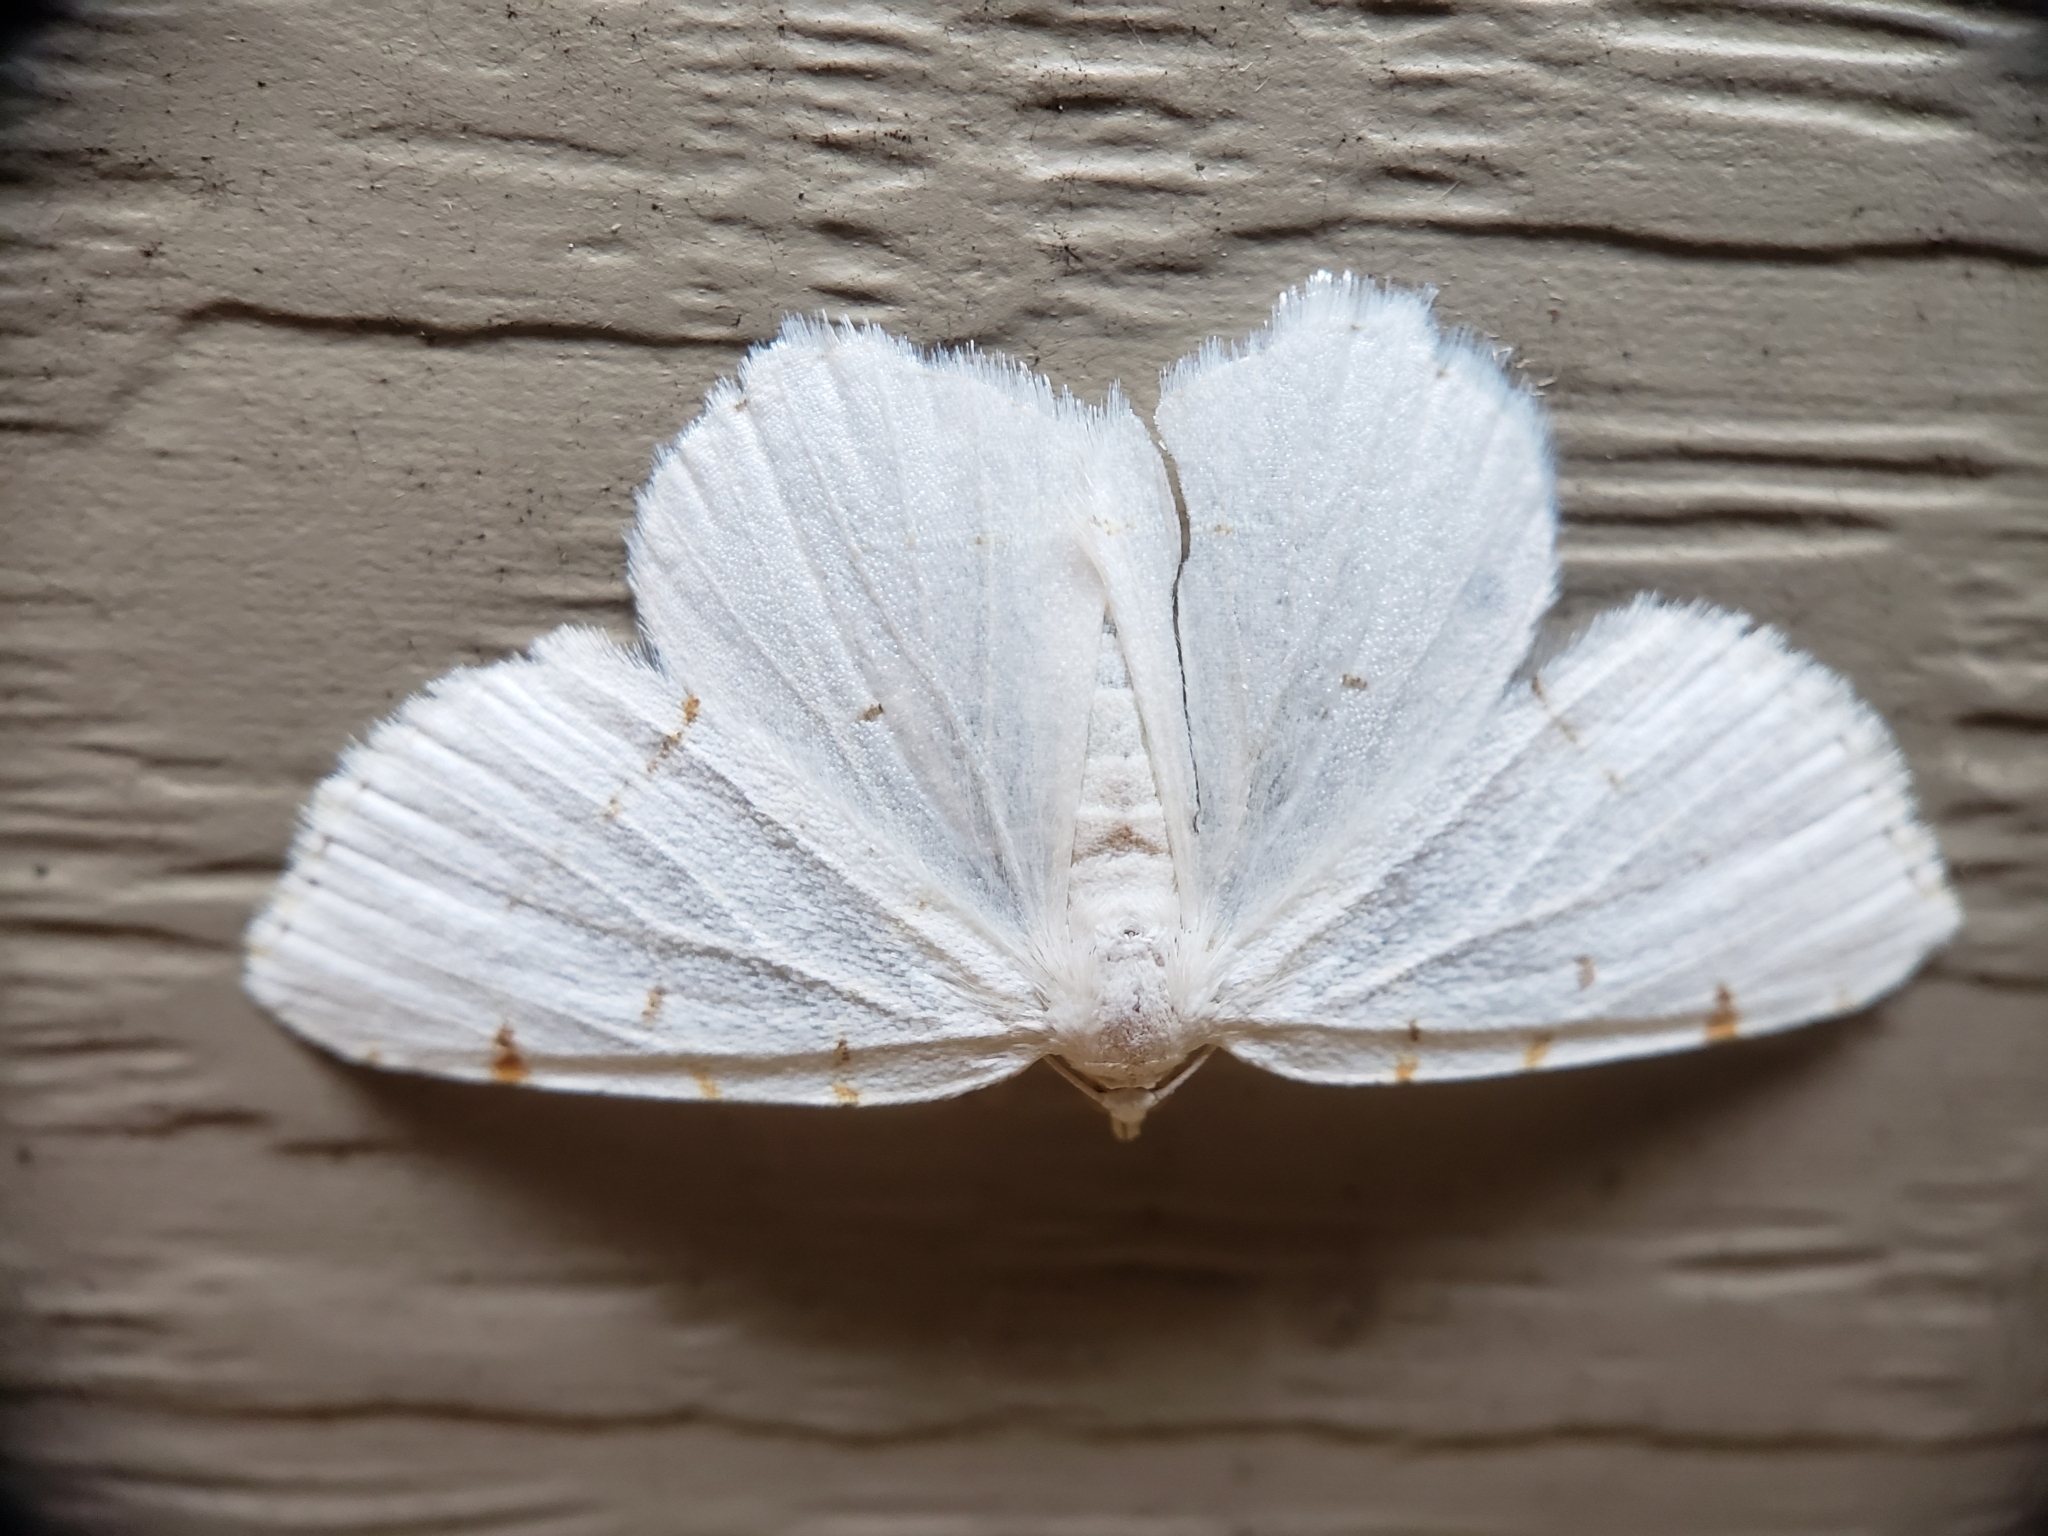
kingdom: Animalia
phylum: Arthropoda
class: Insecta
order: Lepidoptera
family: Geometridae
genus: Macaria
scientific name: Macaria pustularia
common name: Lesser maple spanworm moth
